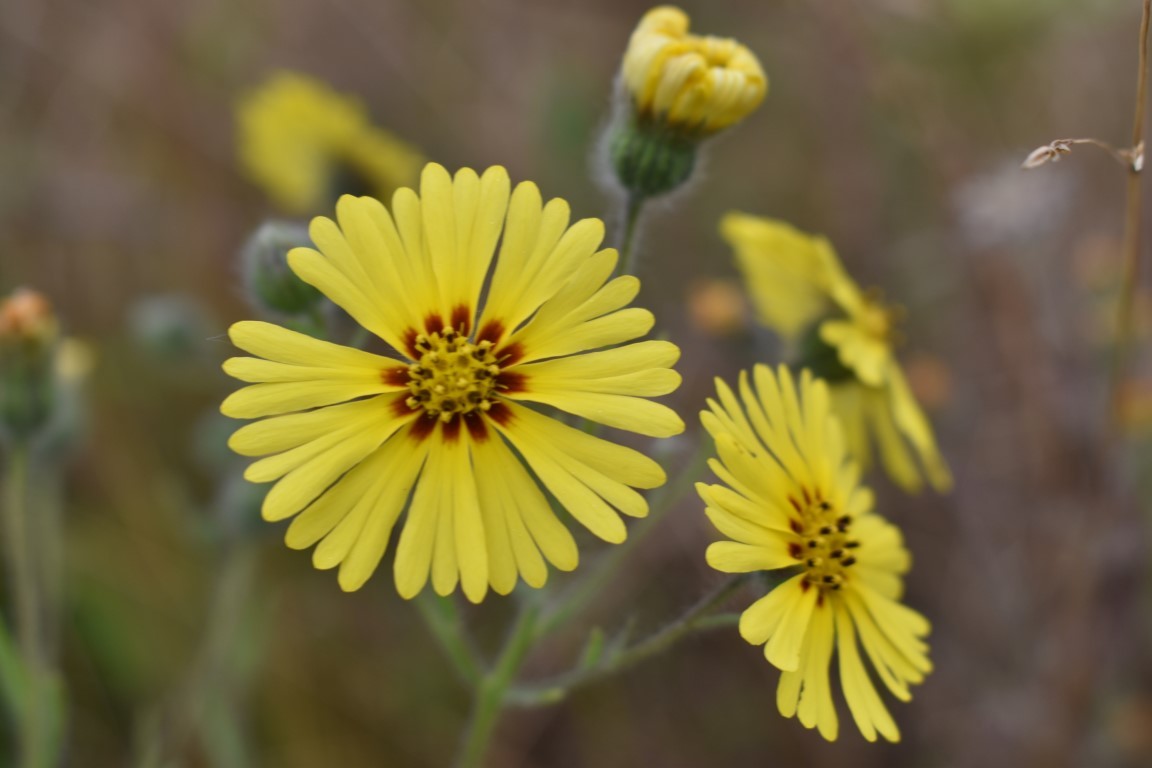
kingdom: Plantae
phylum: Tracheophyta
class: Magnoliopsida
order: Asterales
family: Asteraceae
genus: Madia
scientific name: Madia elegans
